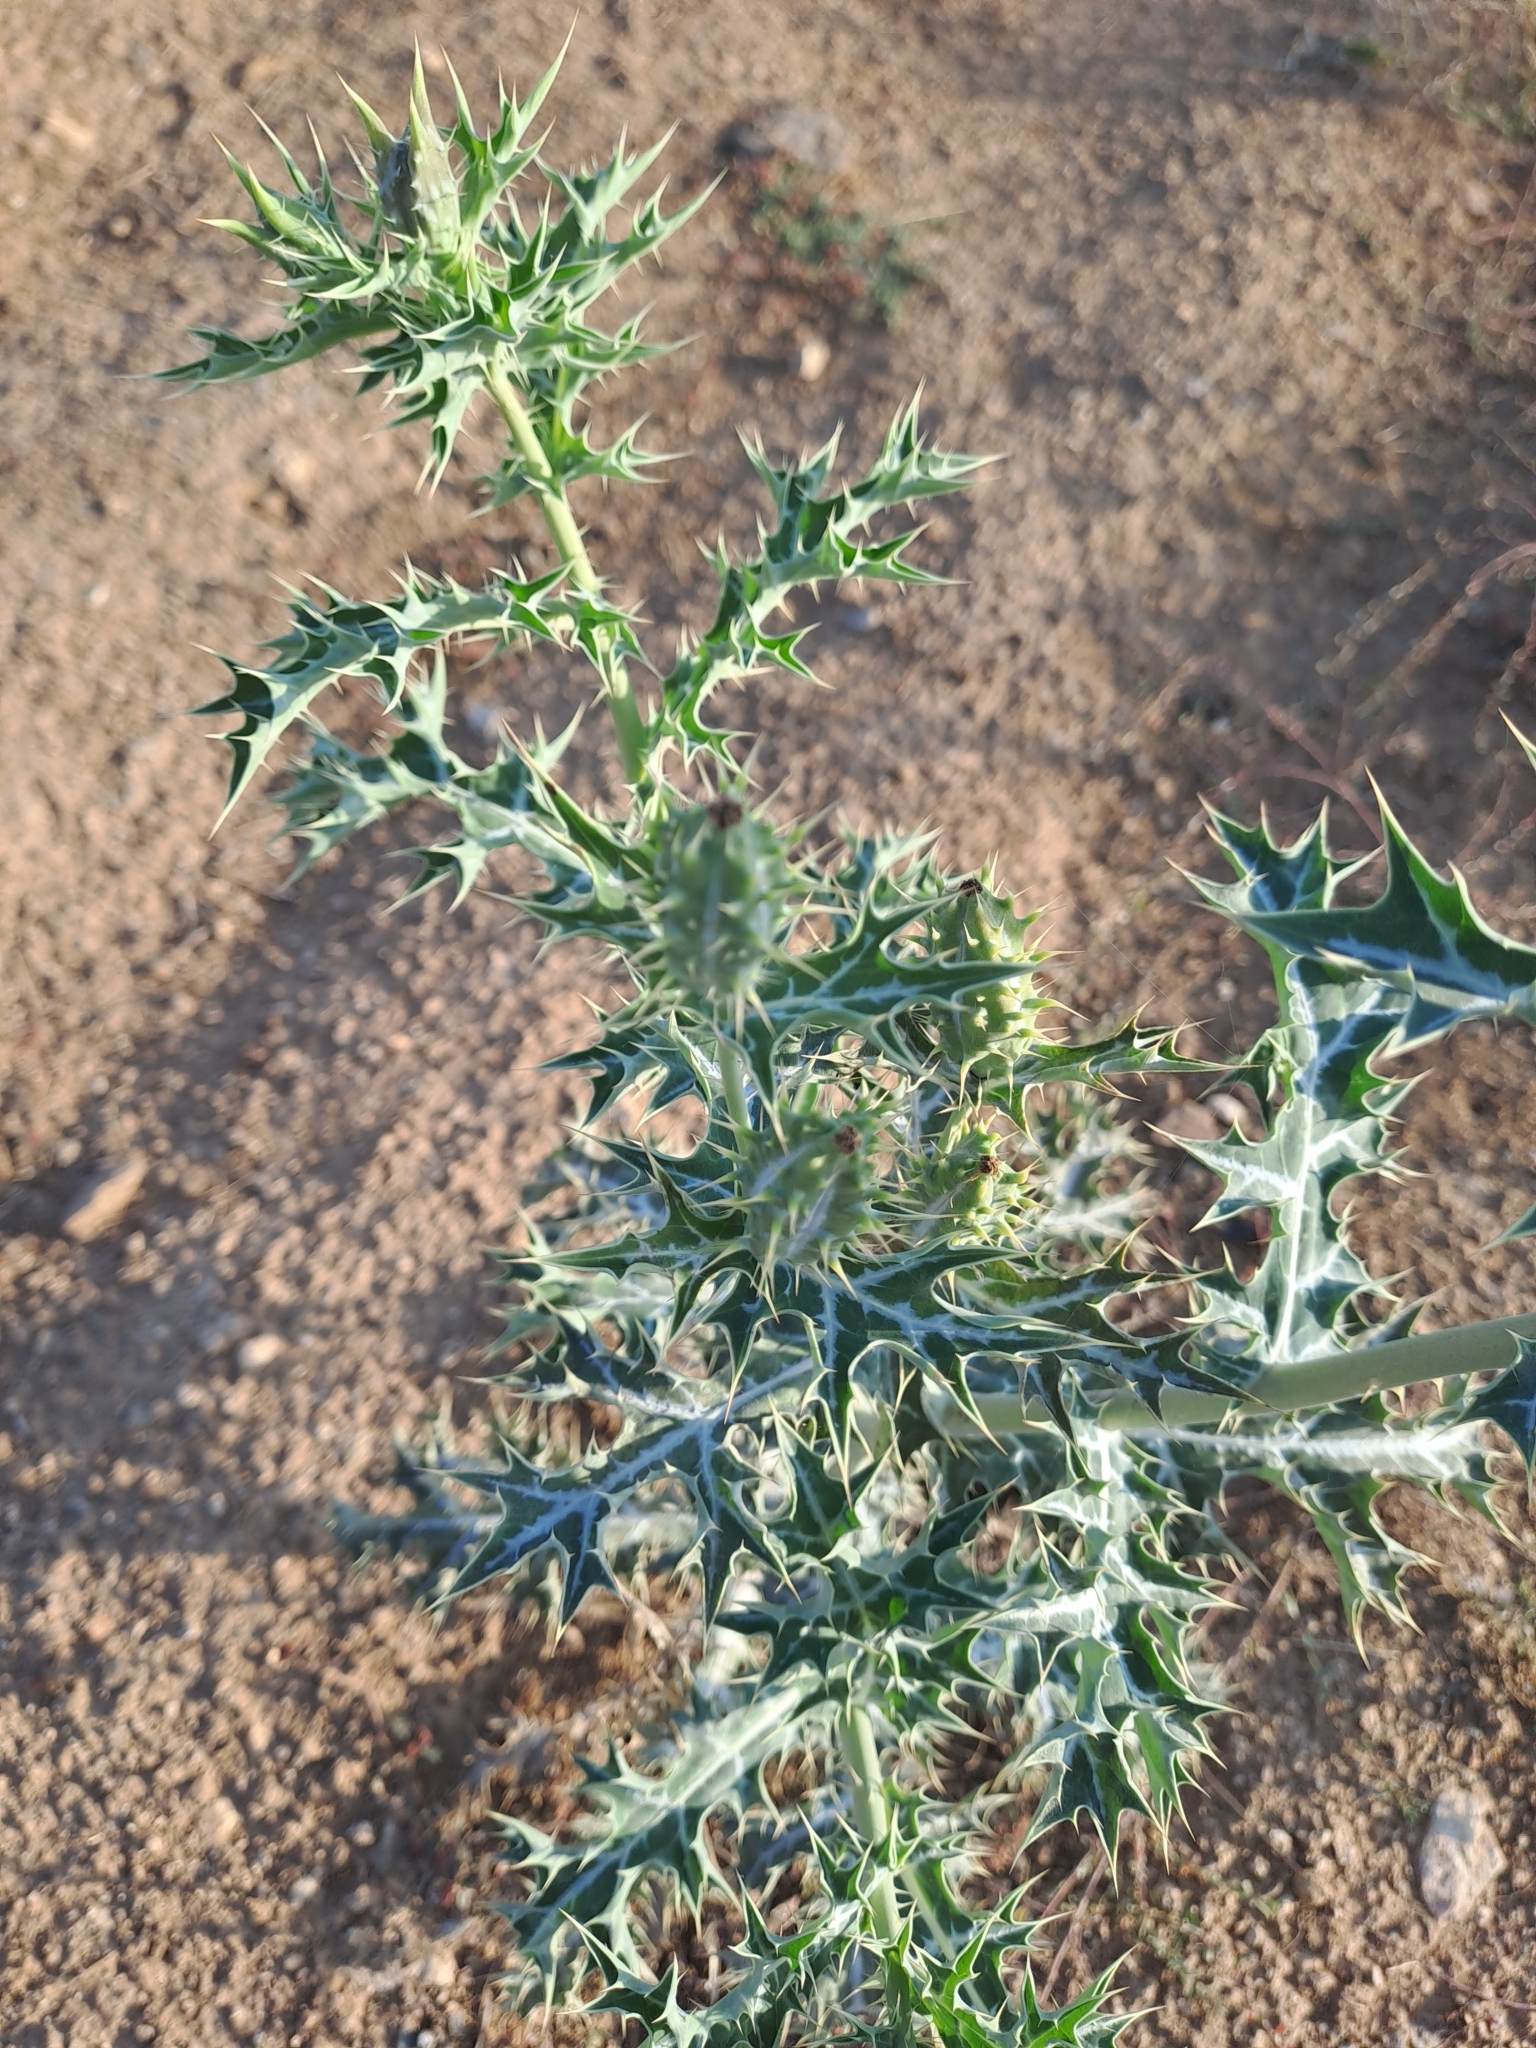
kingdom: Plantae
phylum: Tracheophyta
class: Magnoliopsida
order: Ranunculales
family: Papaveraceae
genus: Argemone
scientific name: Argemone mexicana
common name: Mexican poppy
